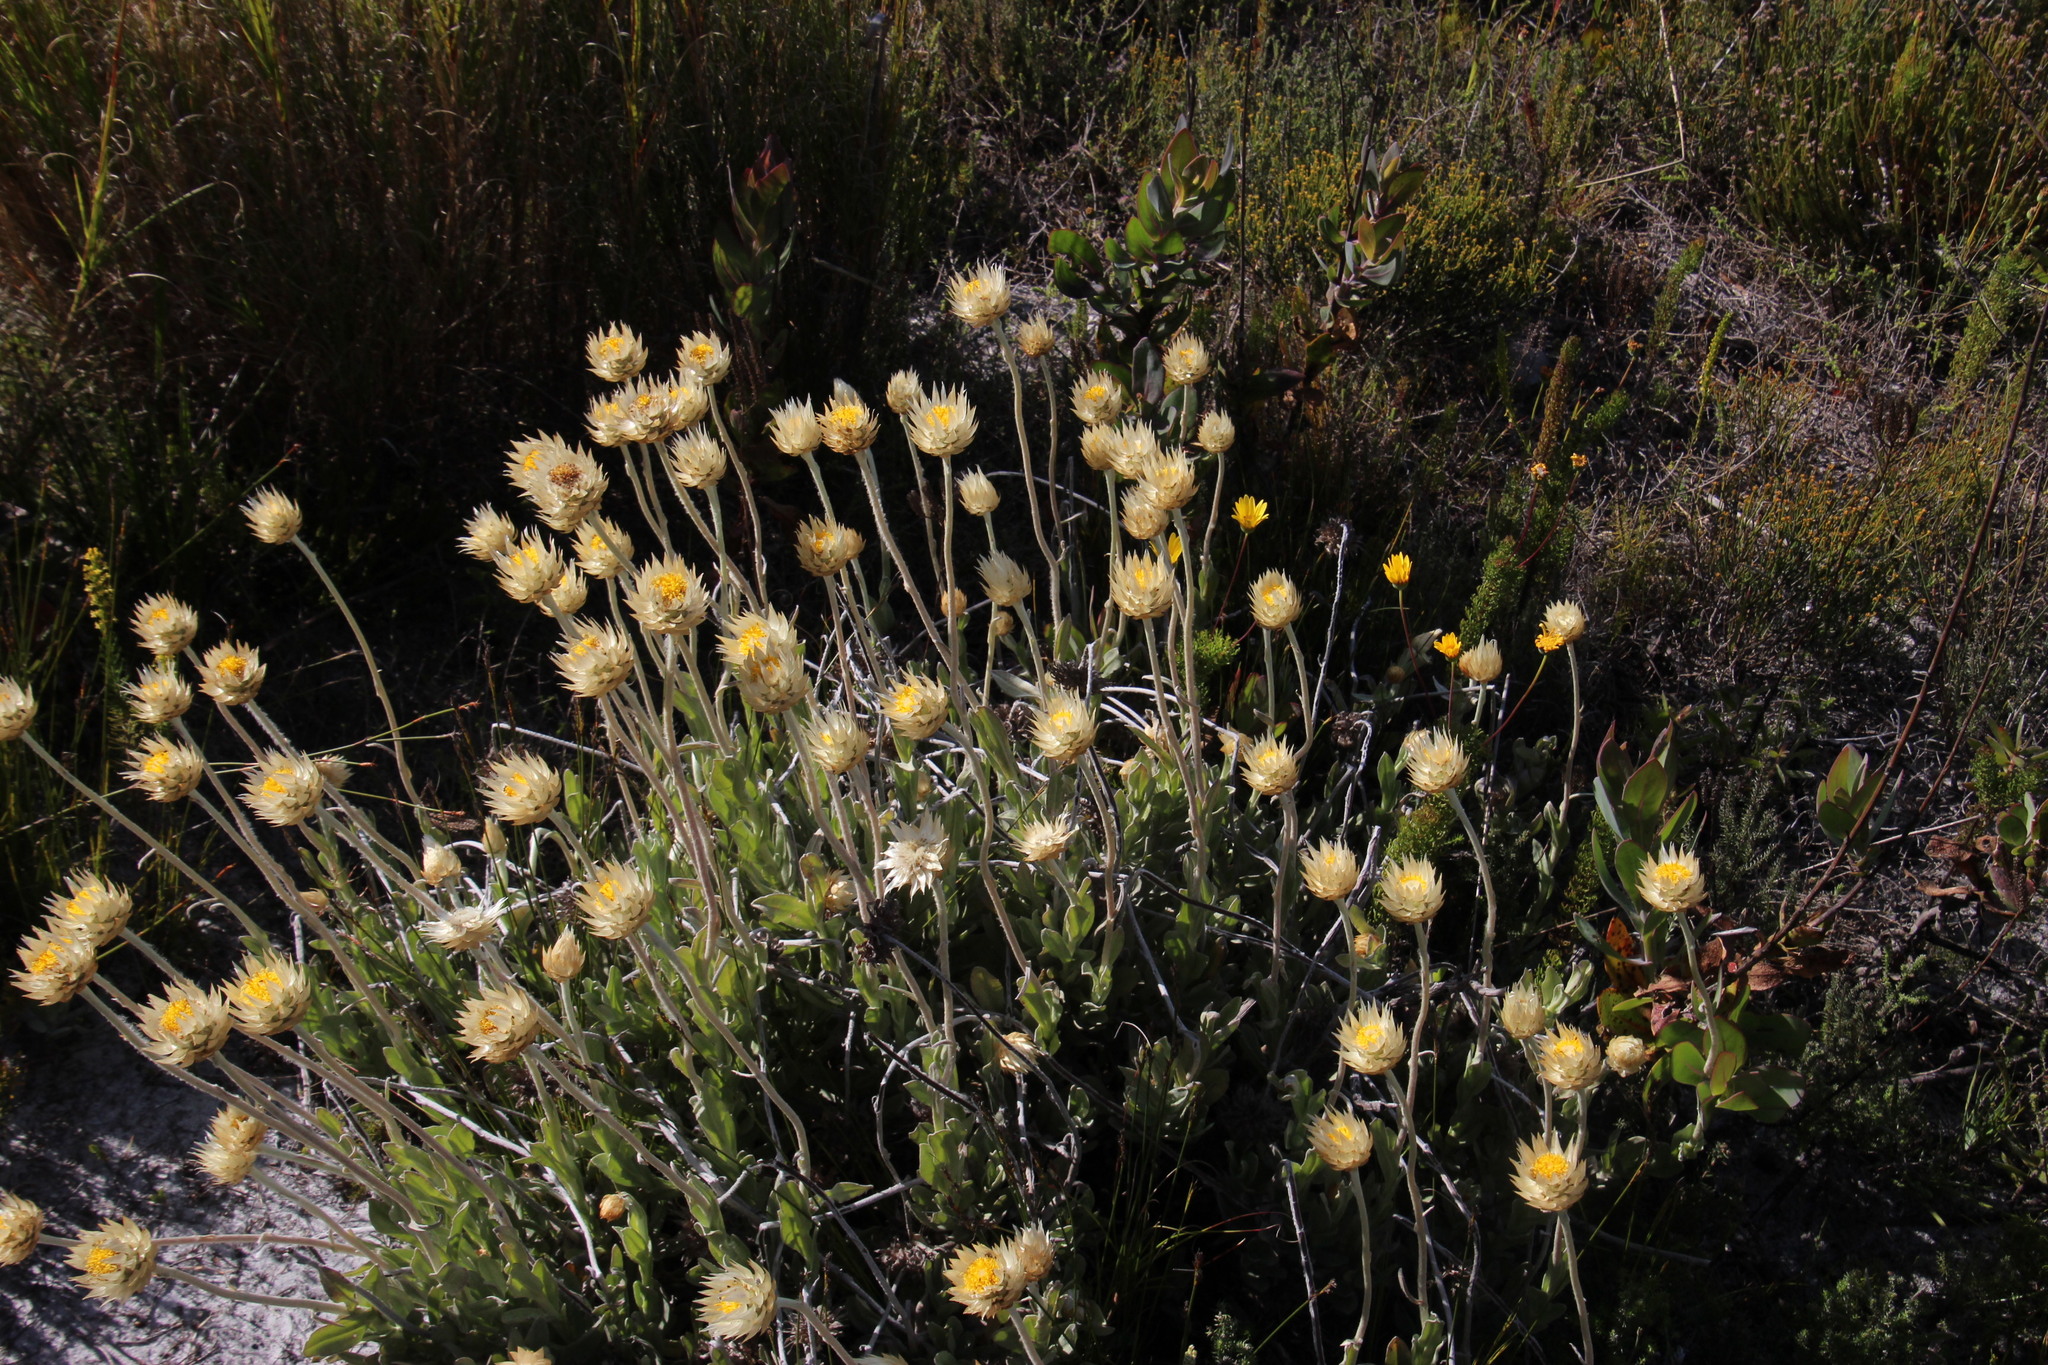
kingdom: Plantae
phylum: Tracheophyta
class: Magnoliopsida
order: Asterales
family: Asteraceae
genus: Syncarpha
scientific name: Syncarpha speciosissima
